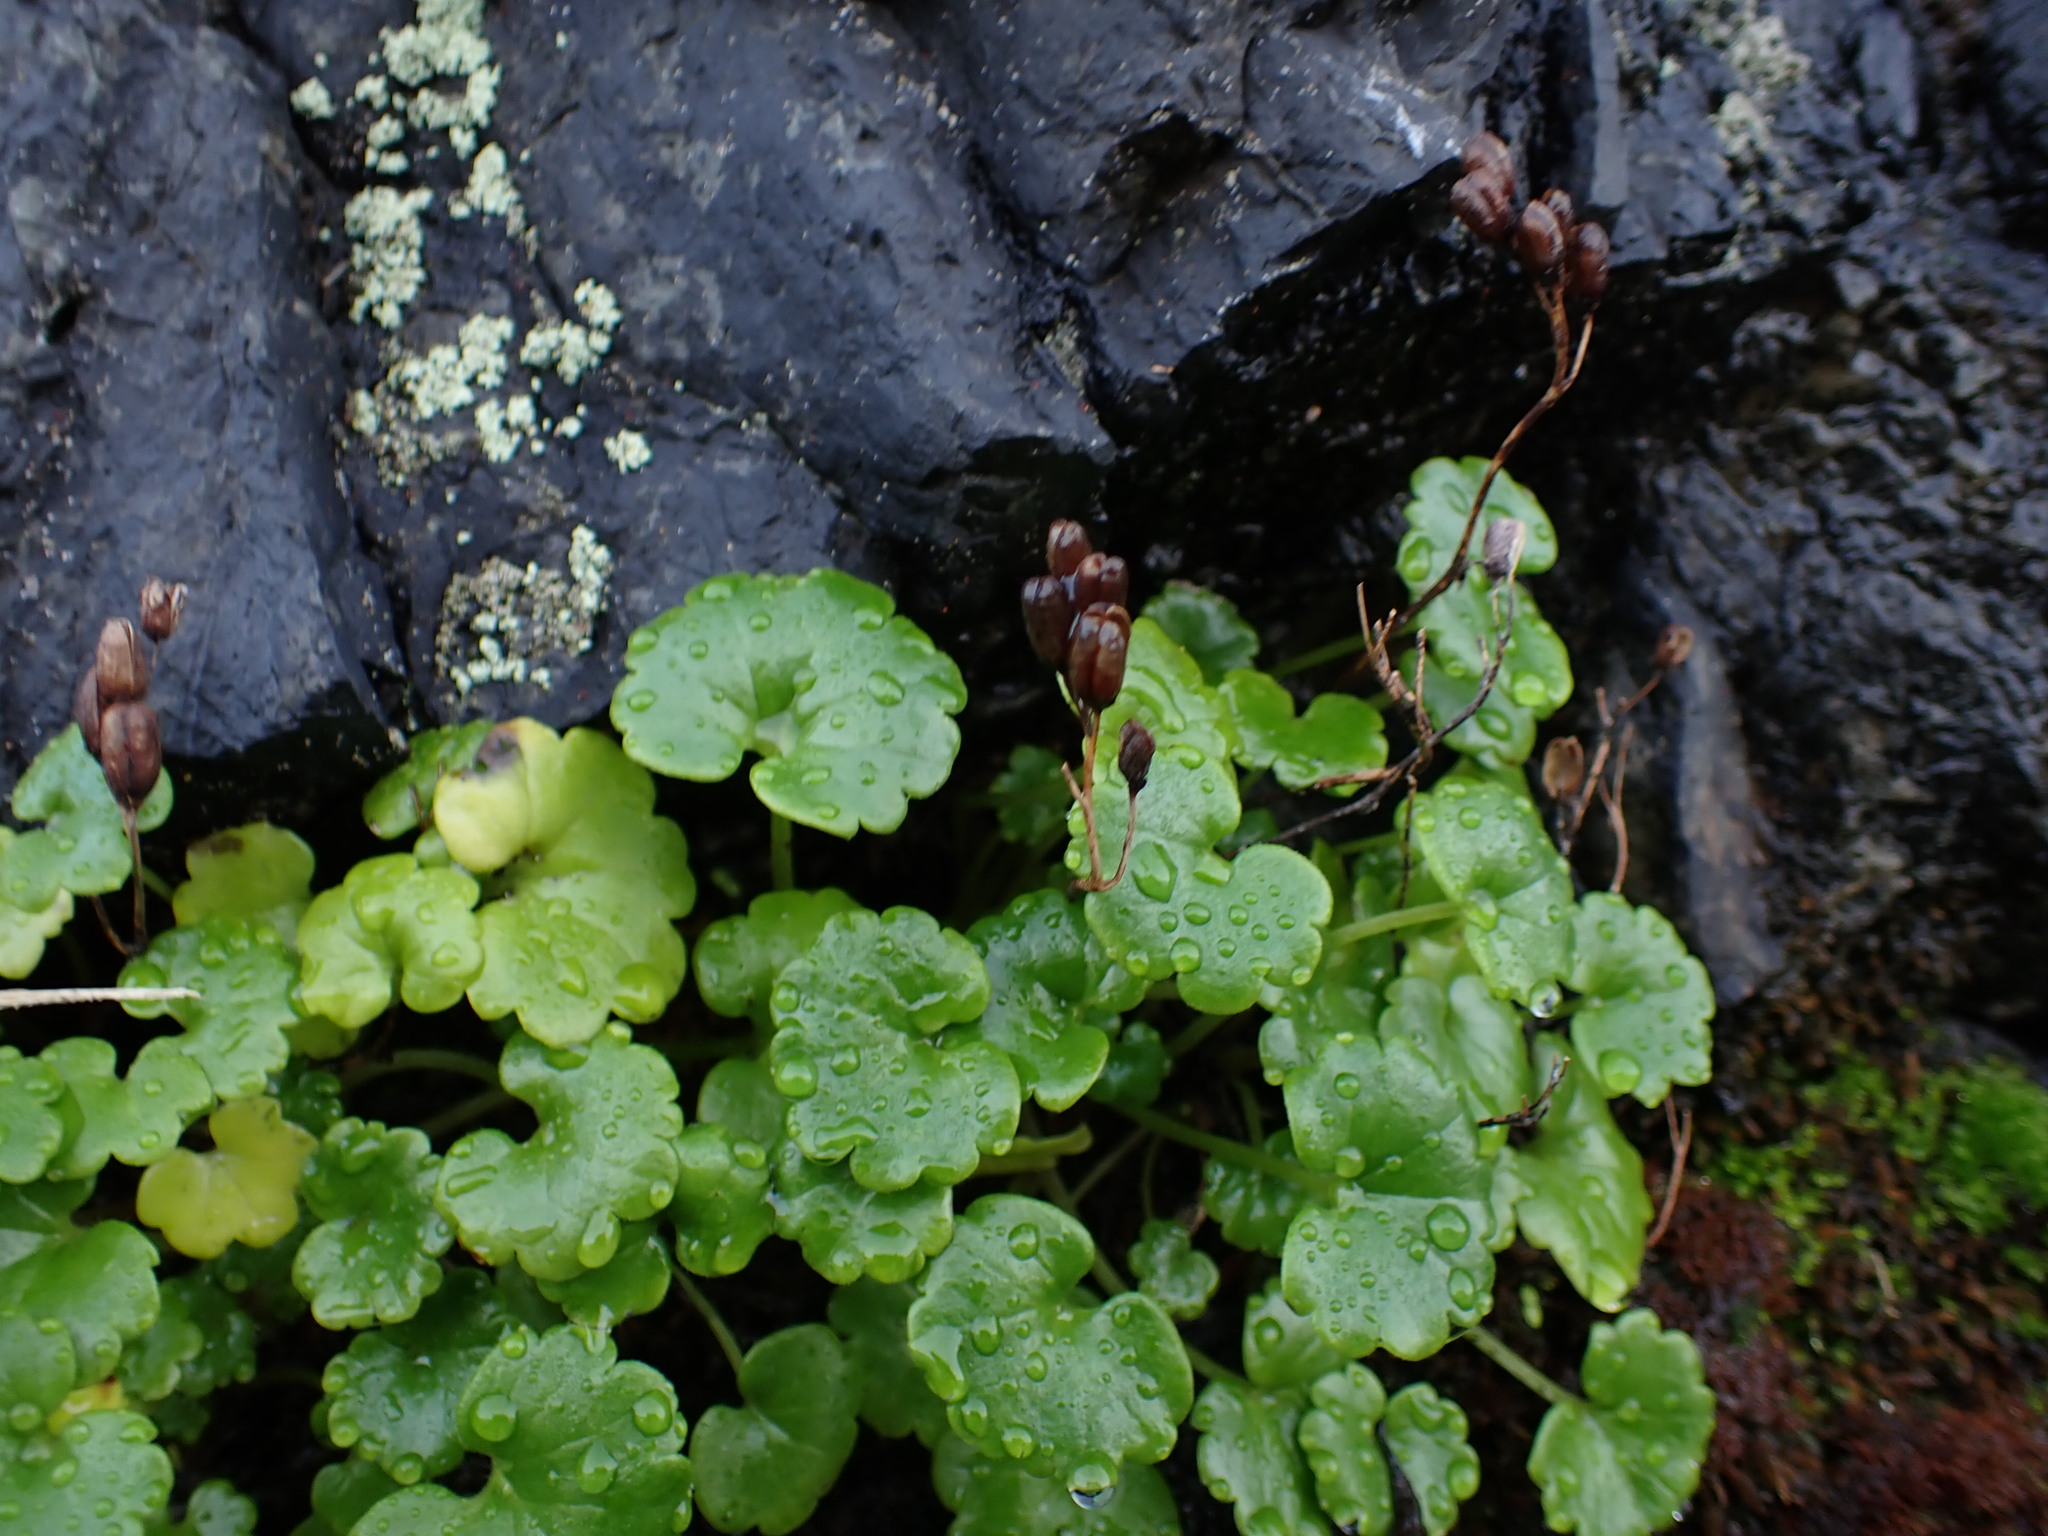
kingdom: Plantae
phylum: Tracheophyta
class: Magnoliopsida
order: Boraginales
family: Hydrophyllaceae
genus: Romanzoffia
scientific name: Romanzoffia tracyi
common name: Tracy's mistmaid
